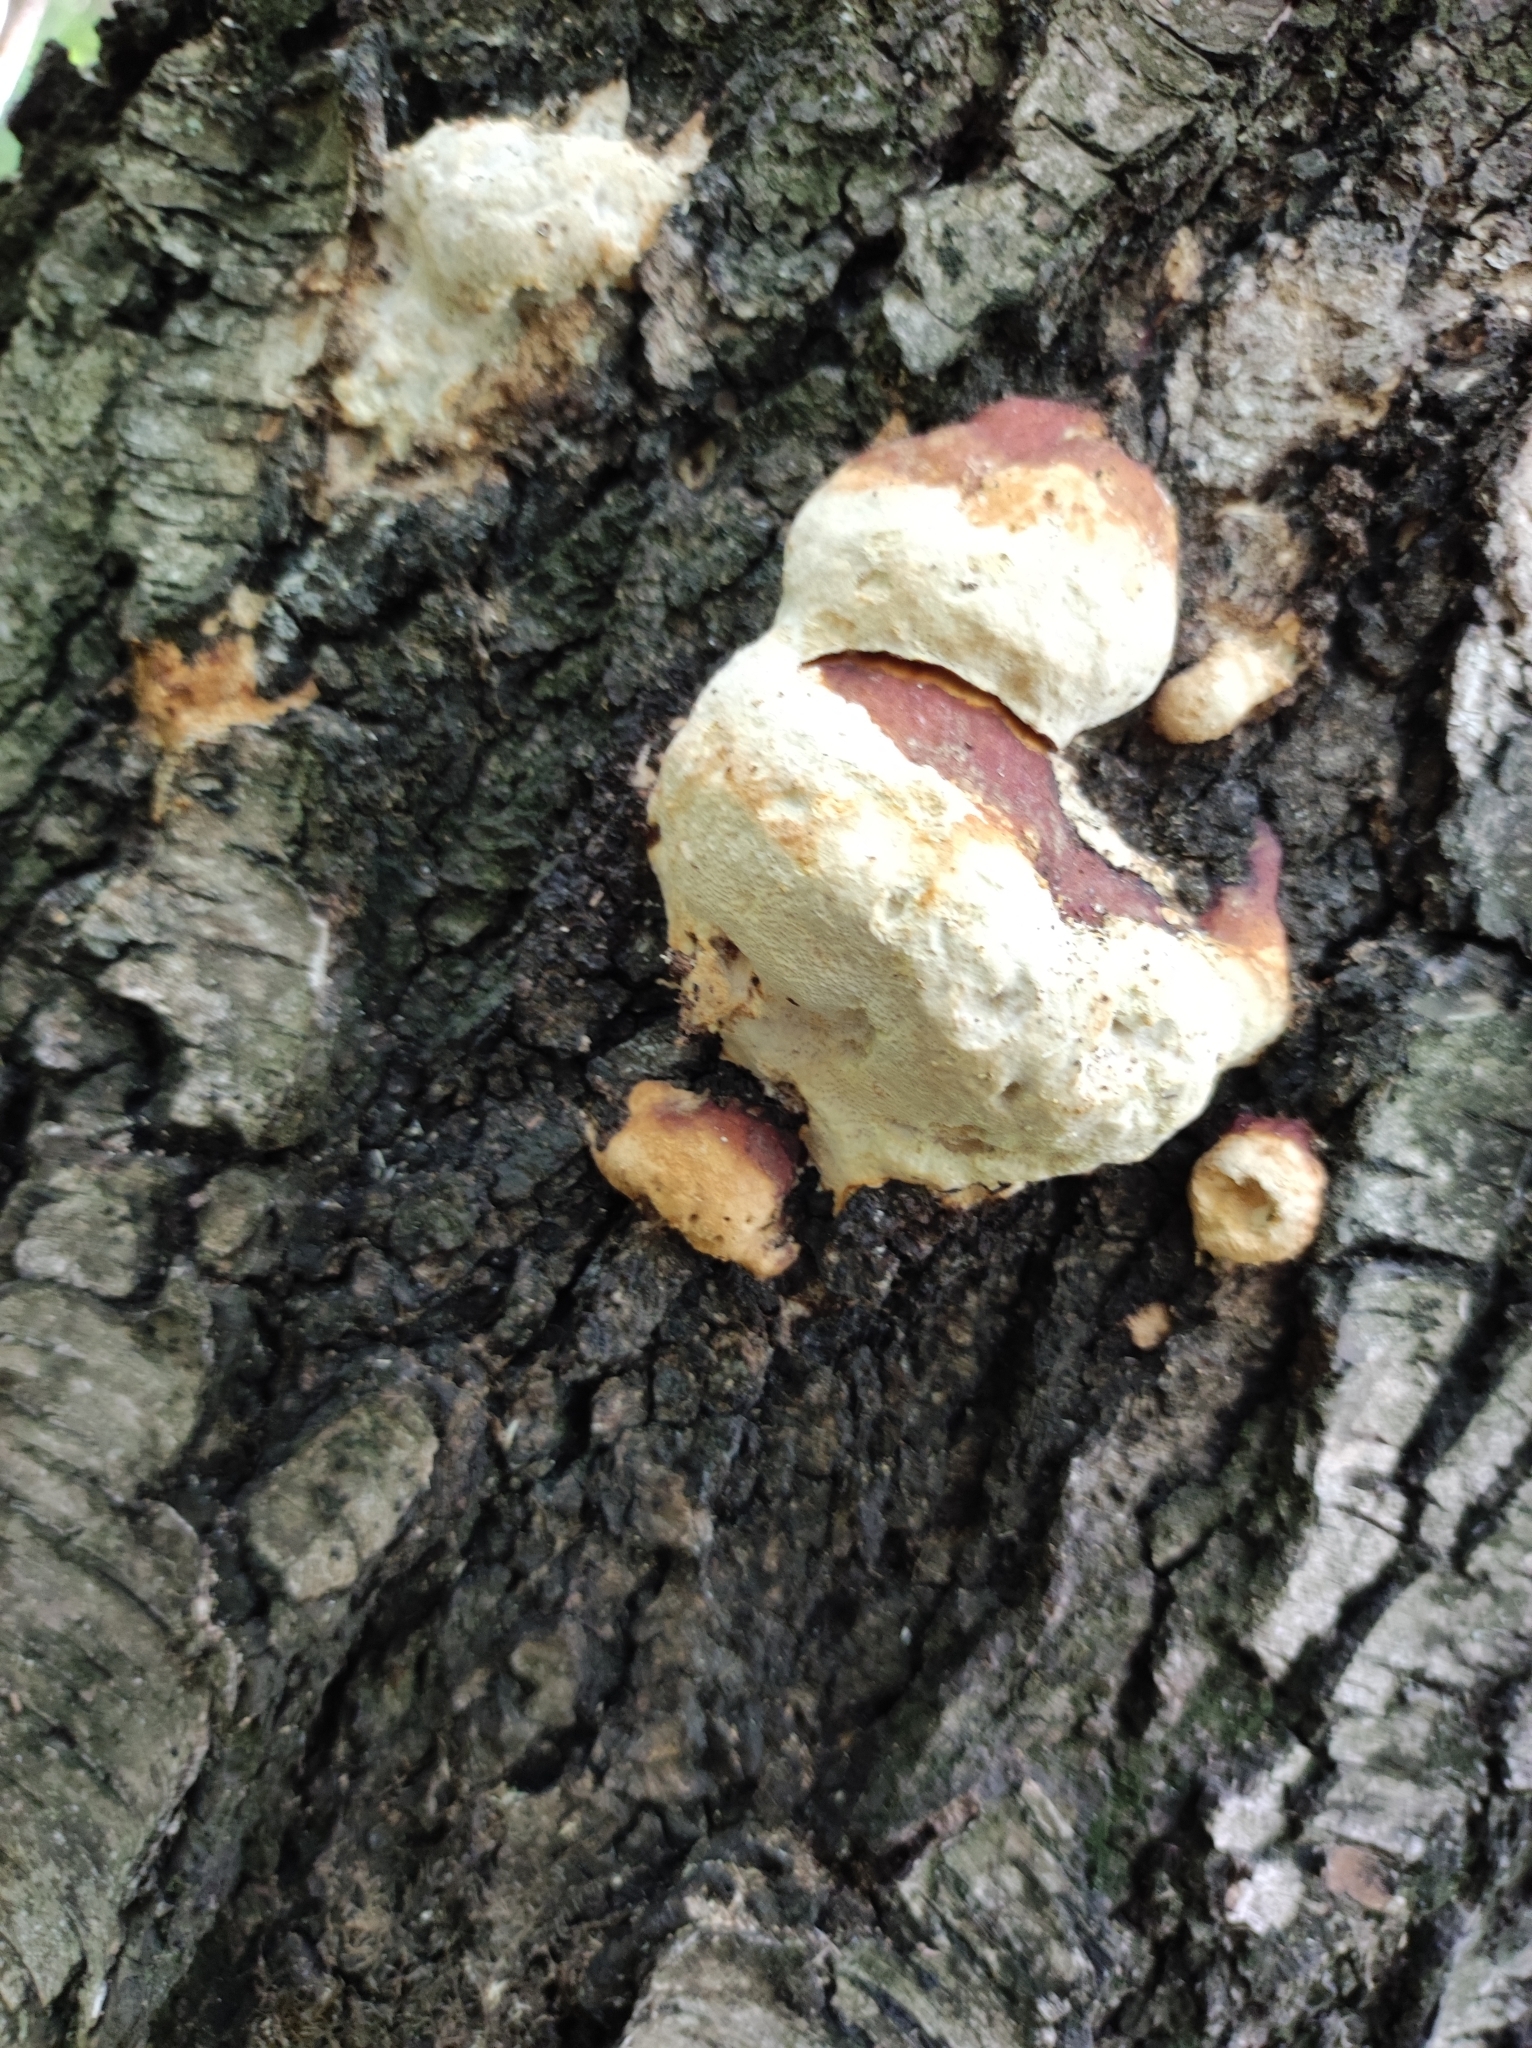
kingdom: Fungi
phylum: Basidiomycota
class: Agaricomycetes
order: Polyporales
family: Fomitopsidaceae
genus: Fomitopsis
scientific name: Fomitopsis pinicola
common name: Red-belted bracket
